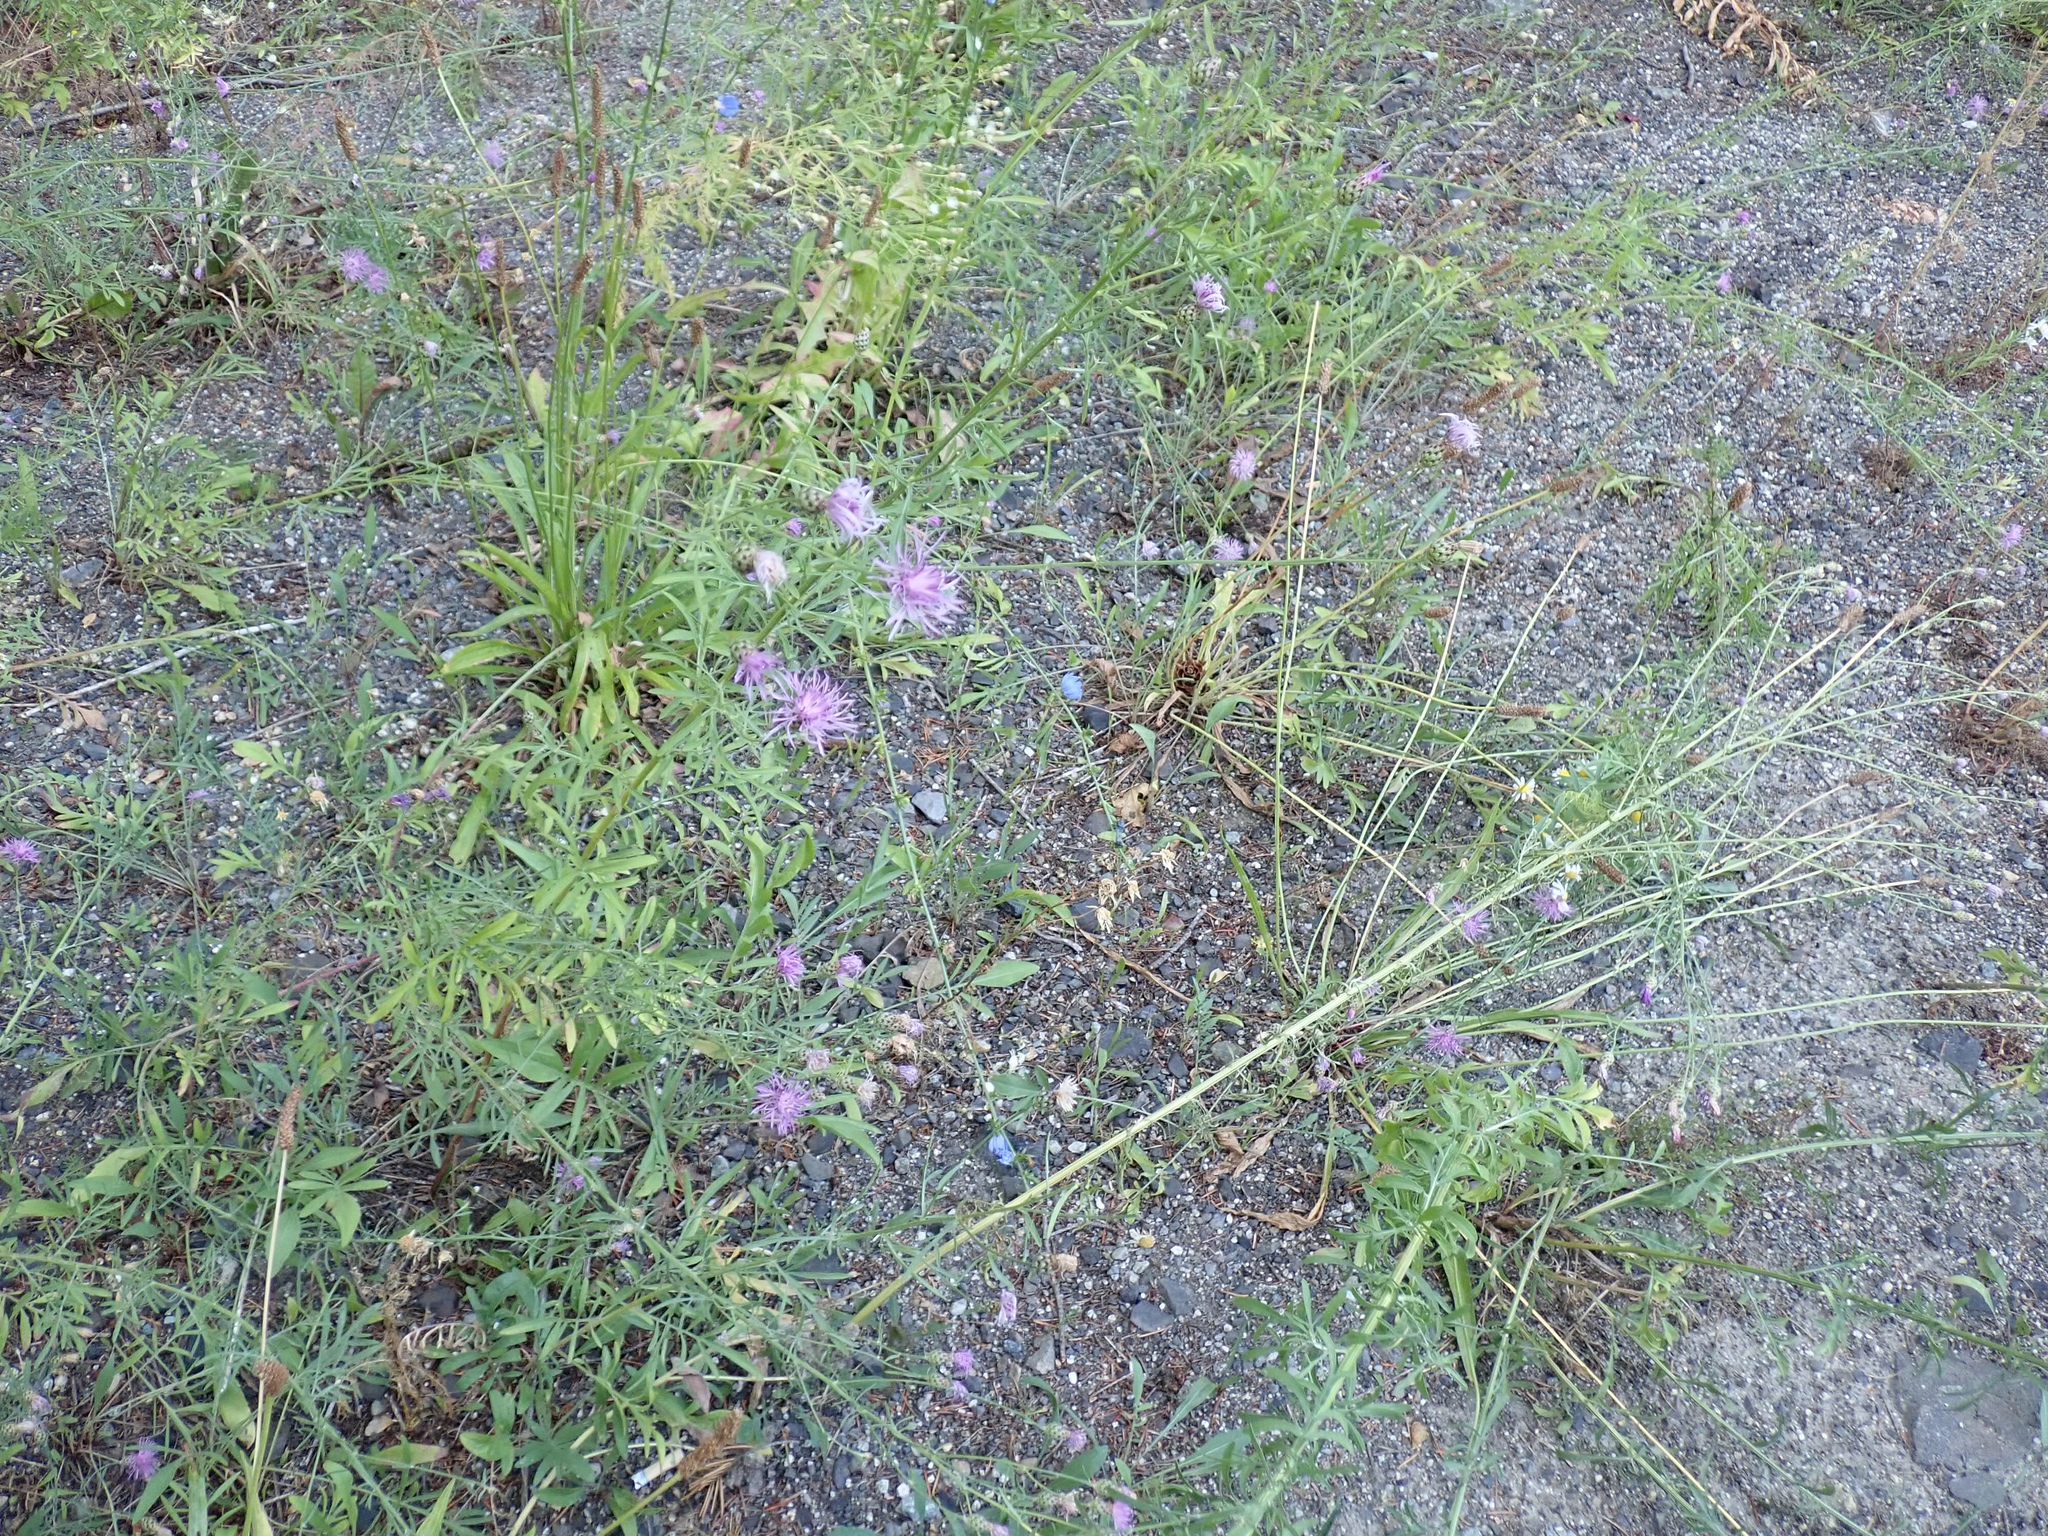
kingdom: Plantae
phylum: Tracheophyta
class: Magnoliopsida
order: Asterales
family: Asteraceae
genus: Centaurea
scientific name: Centaurea stoebe
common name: Spotted knapweed
